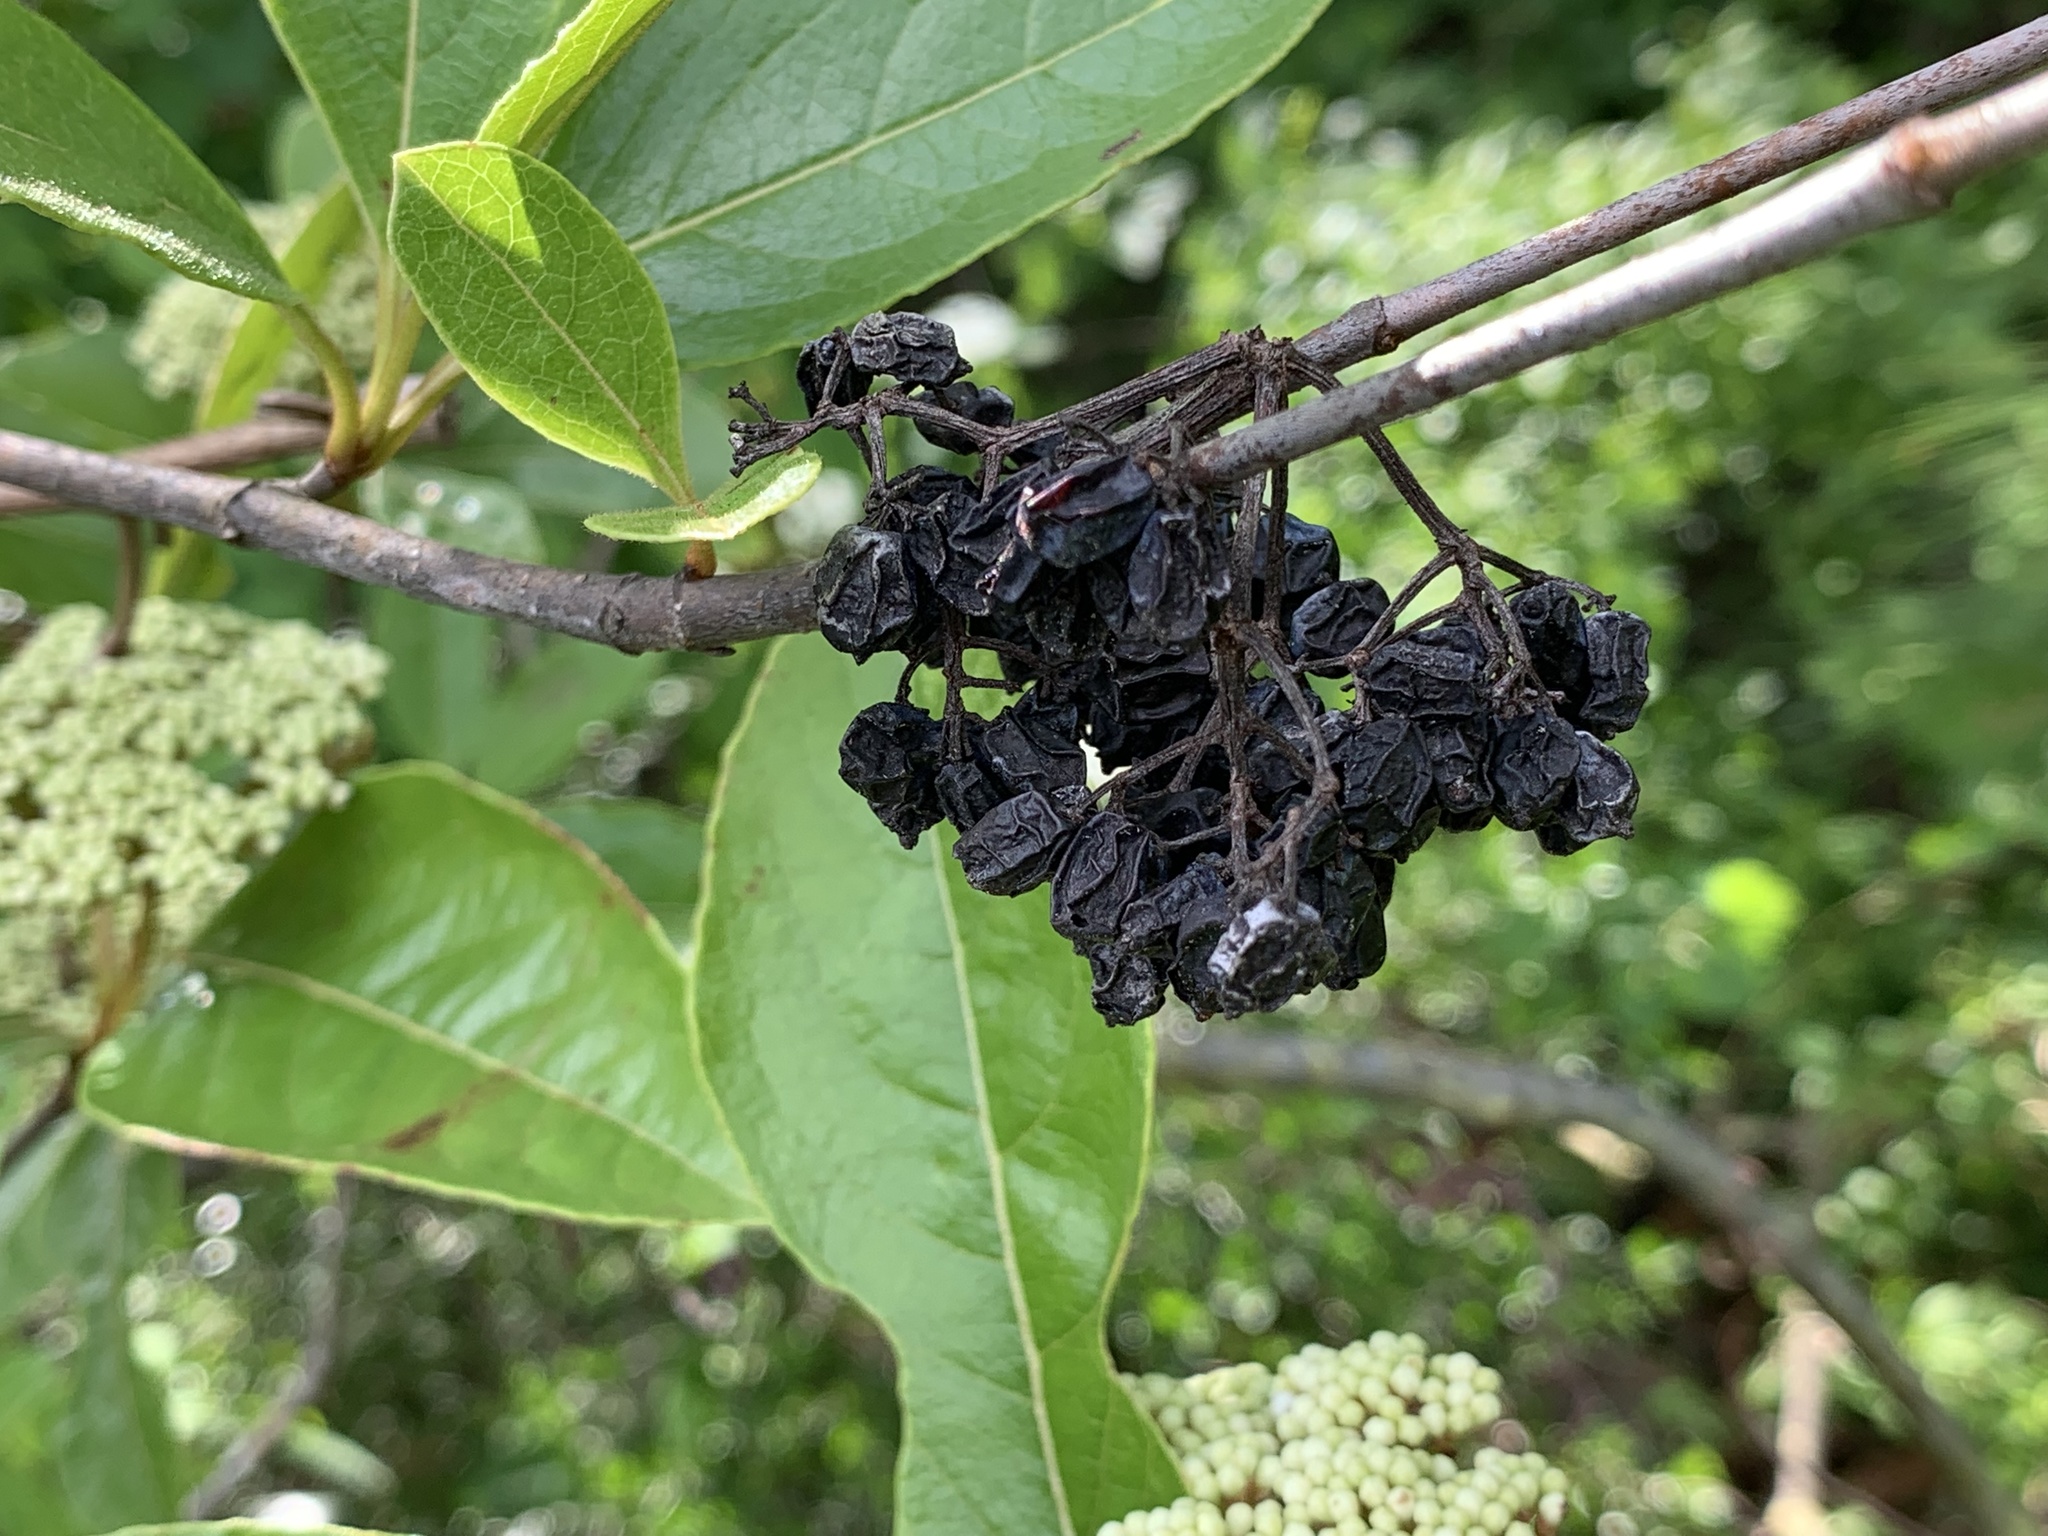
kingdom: Plantae
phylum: Tracheophyta
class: Magnoliopsida
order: Dipsacales
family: Viburnaceae
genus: Viburnum
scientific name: Viburnum nudum
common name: Possum haw
